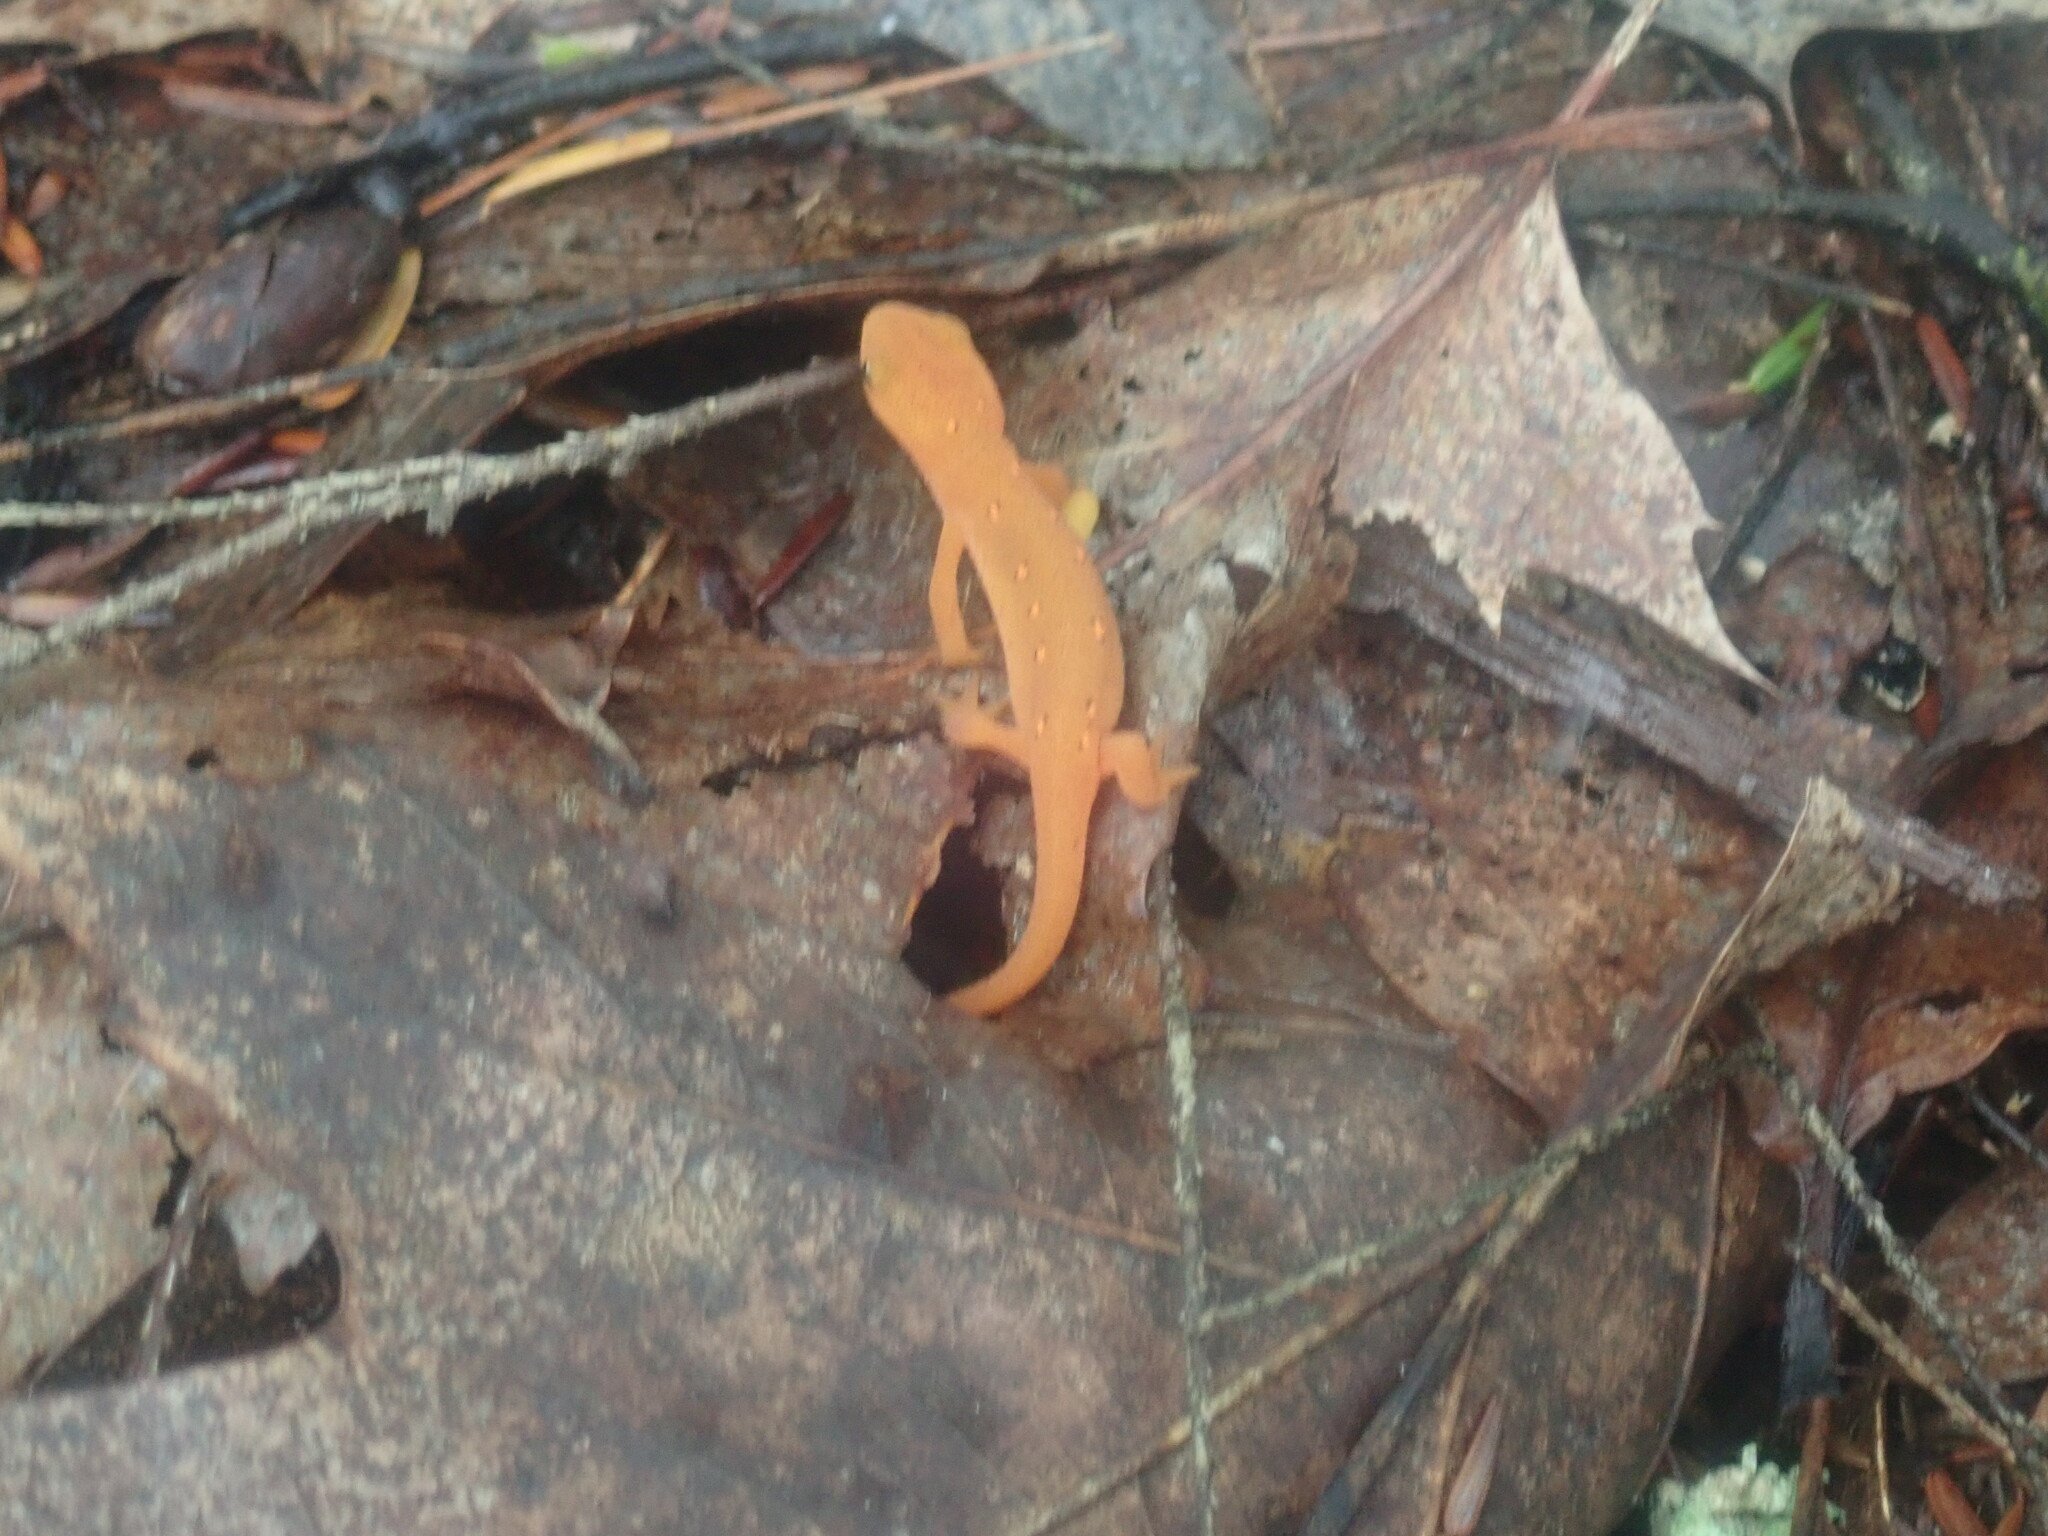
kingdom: Animalia
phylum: Chordata
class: Amphibia
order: Caudata
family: Salamandridae
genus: Notophthalmus
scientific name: Notophthalmus viridescens
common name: Eastern newt
